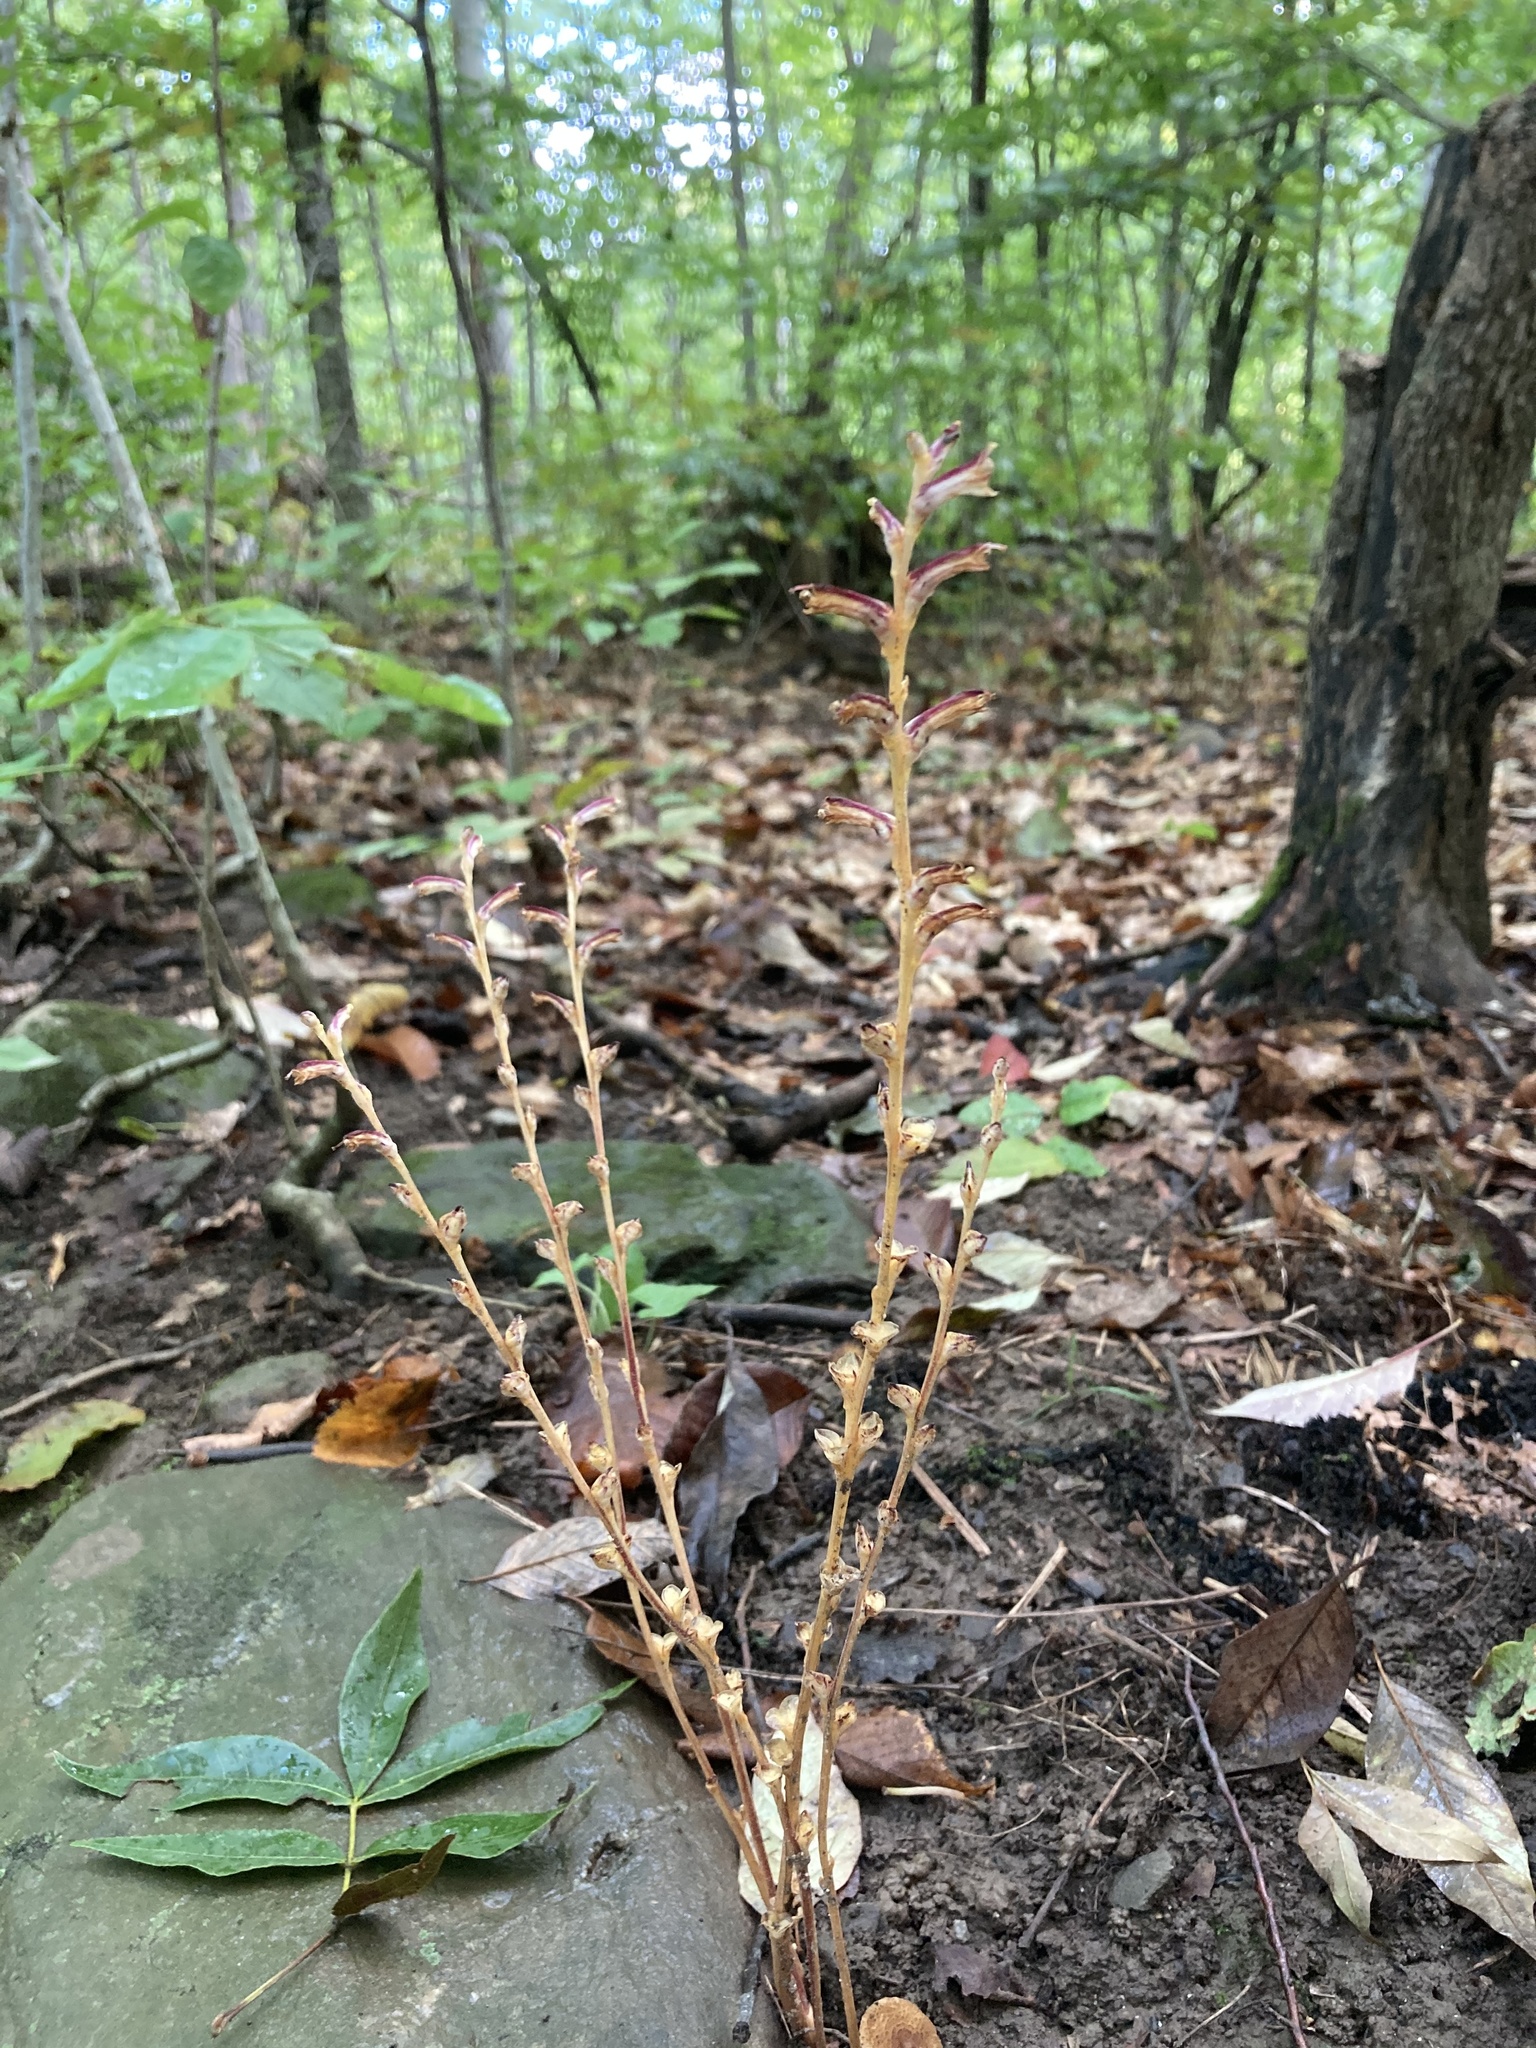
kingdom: Plantae
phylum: Tracheophyta
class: Magnoliopsida
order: Lamiales
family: Orobanchaceae
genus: Epifagus
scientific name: Epifagus virginiana
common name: Beechdrops
